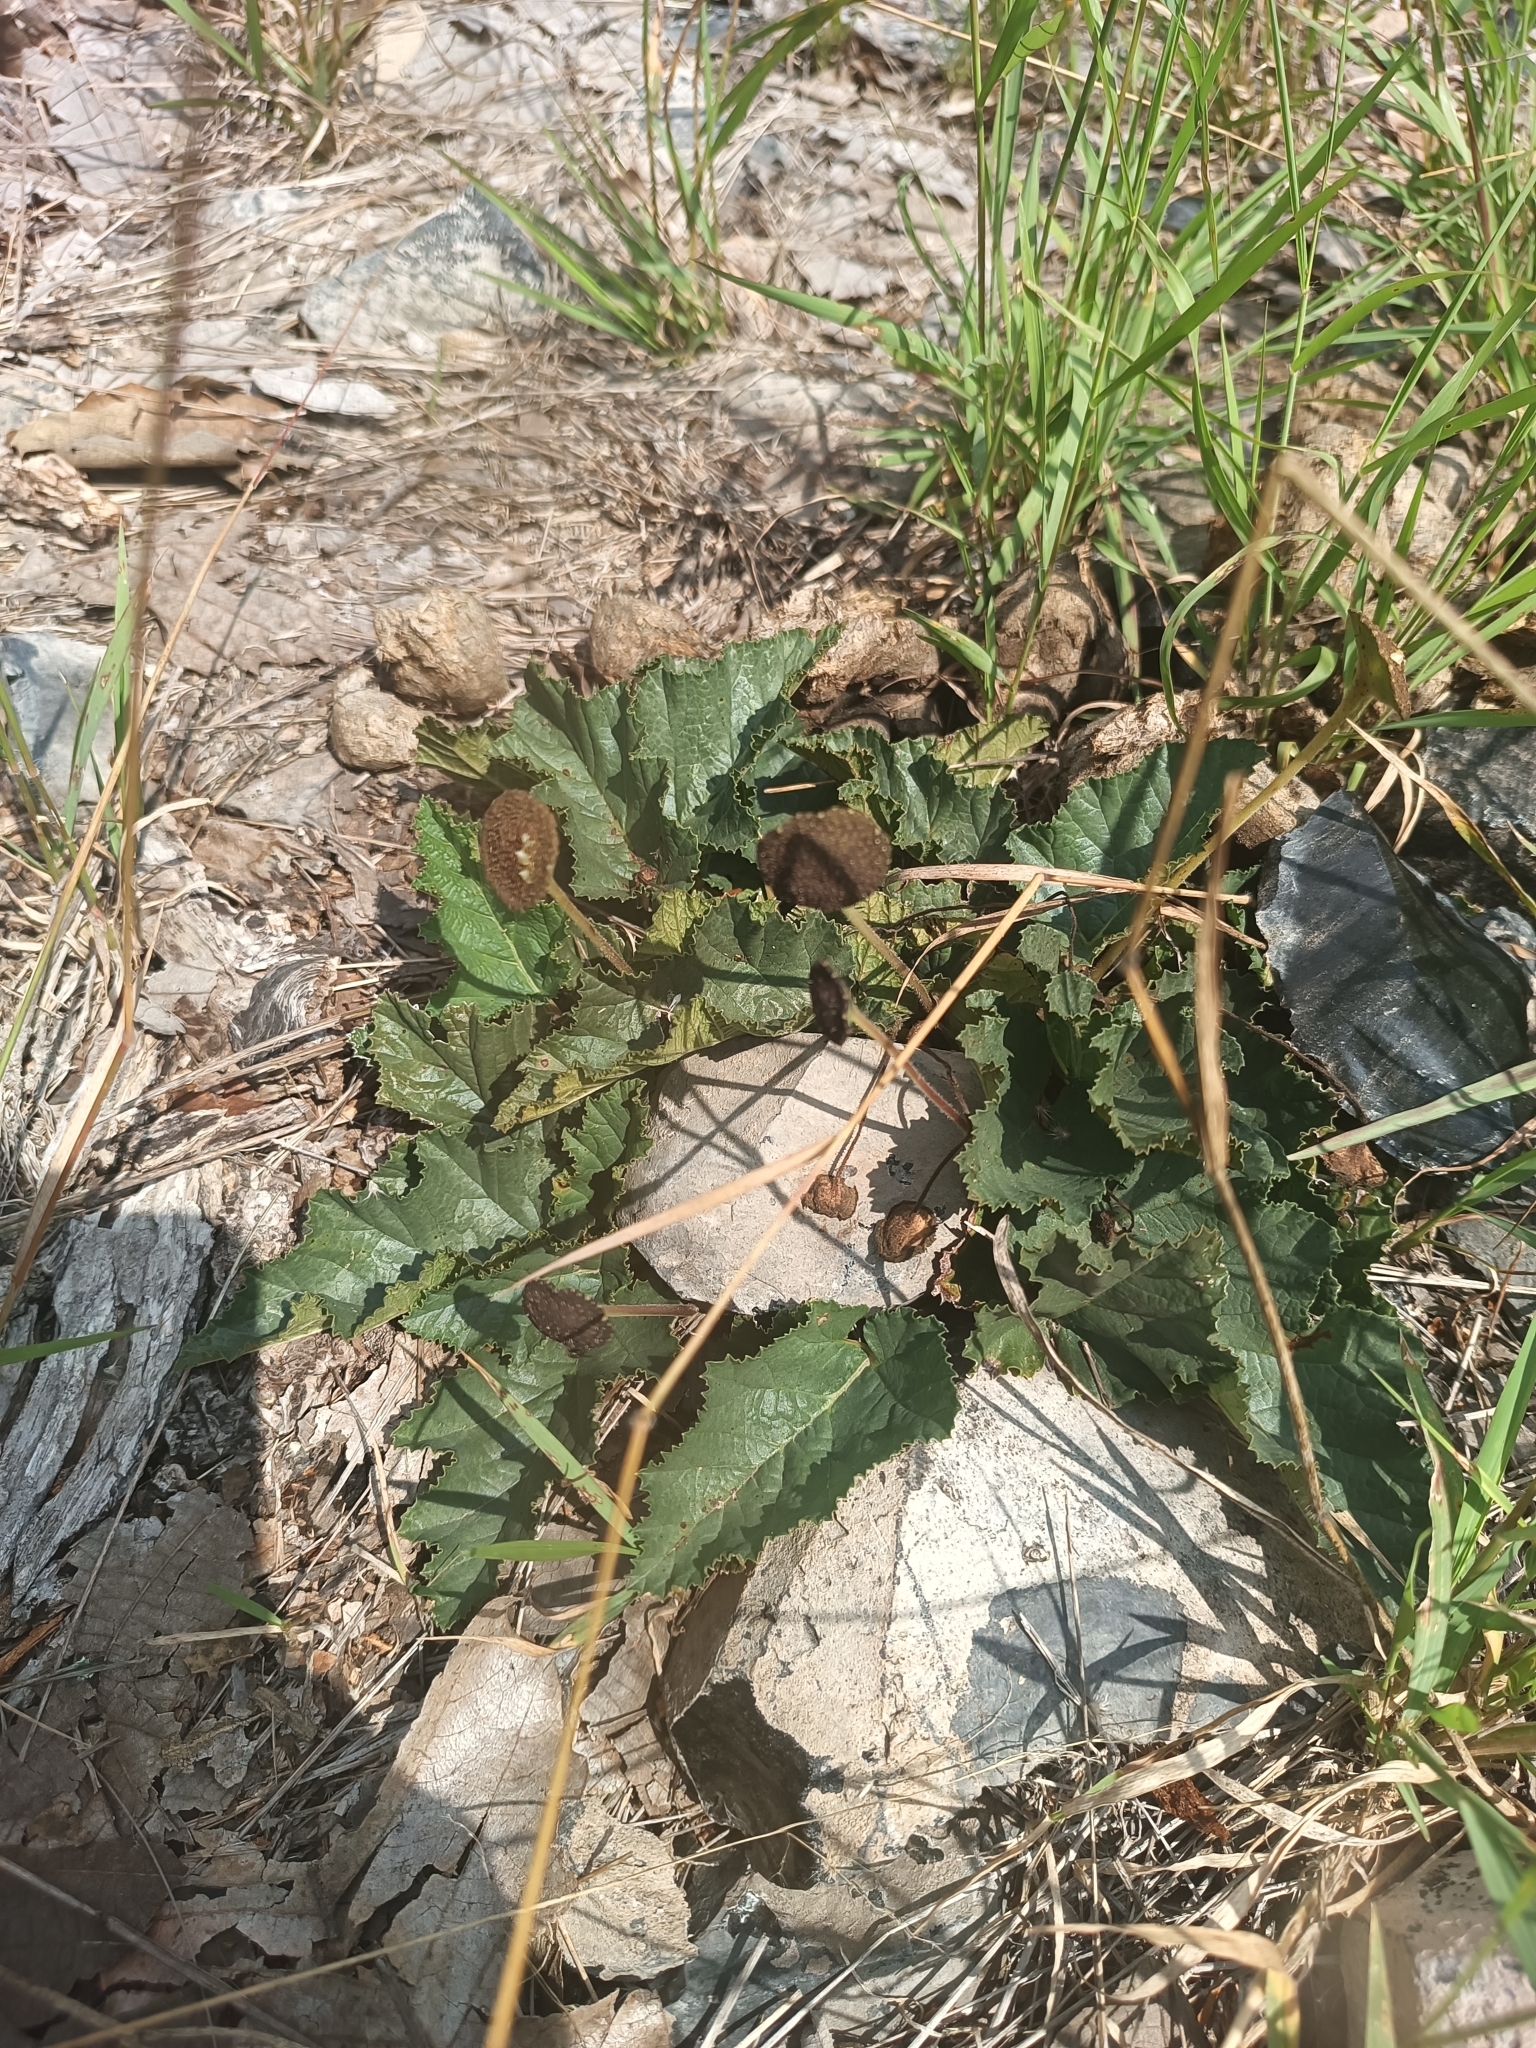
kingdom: Plantae
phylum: Tracheophyta
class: Magnoliopsida
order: Rosales
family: Moraceae
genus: Dorstenia
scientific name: Dorstenia drakena
